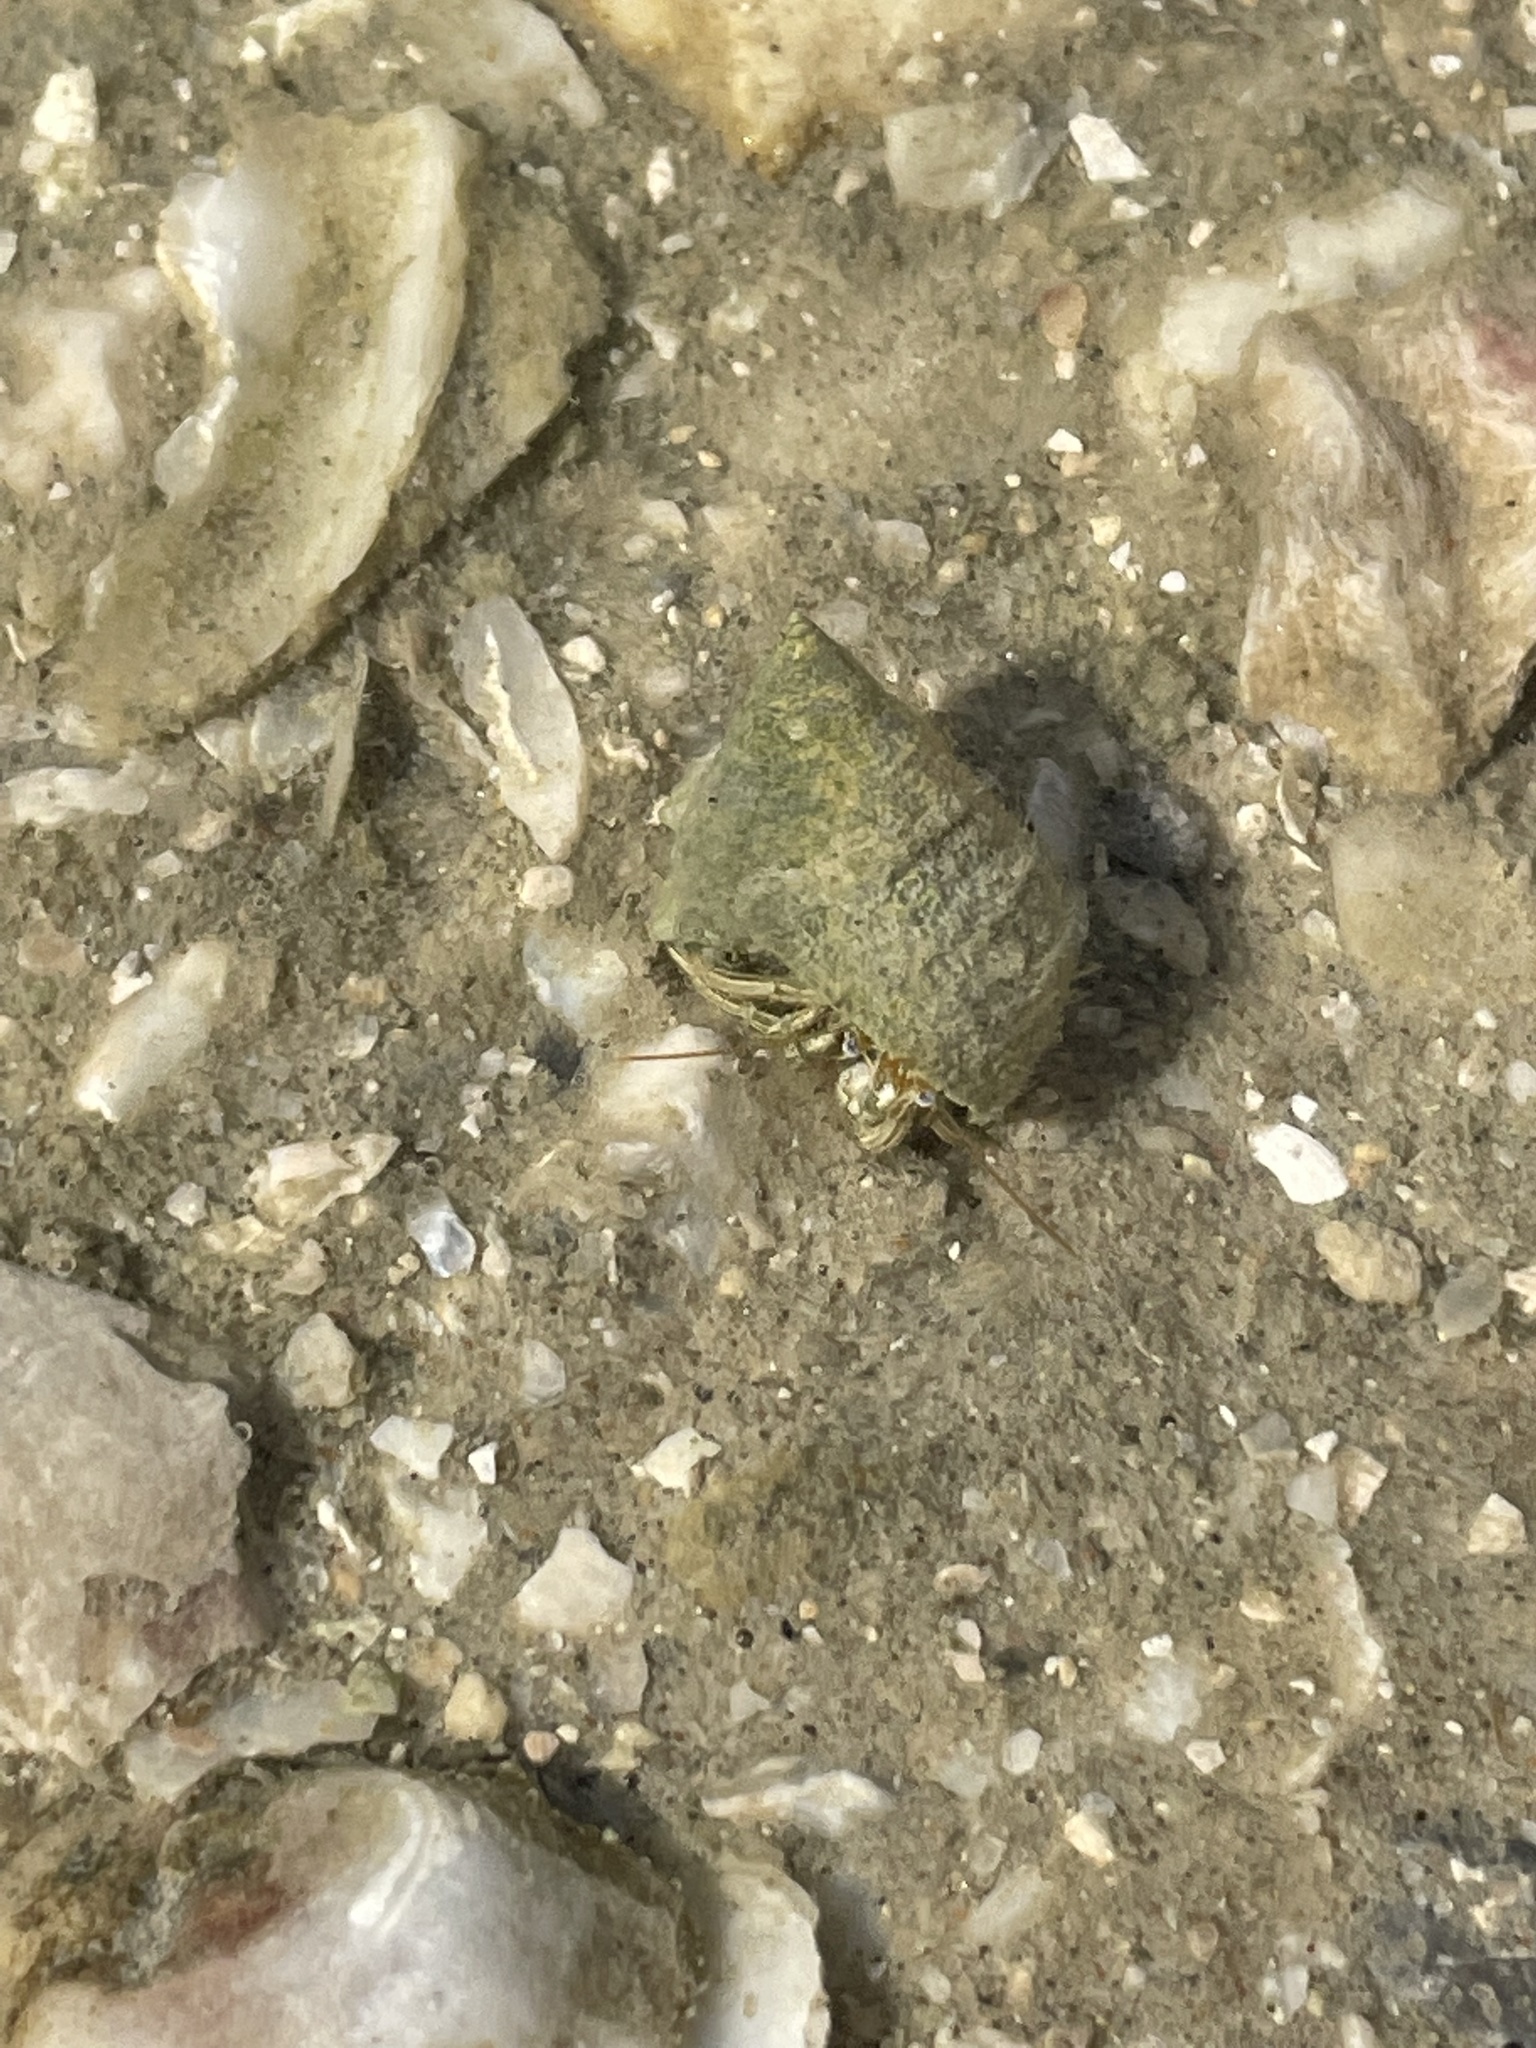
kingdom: Animalia
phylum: Arthropoda
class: Malacostraca
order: Decapoda
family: Diogenidae
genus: Clibanarius
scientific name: Clibanarius vittatus
